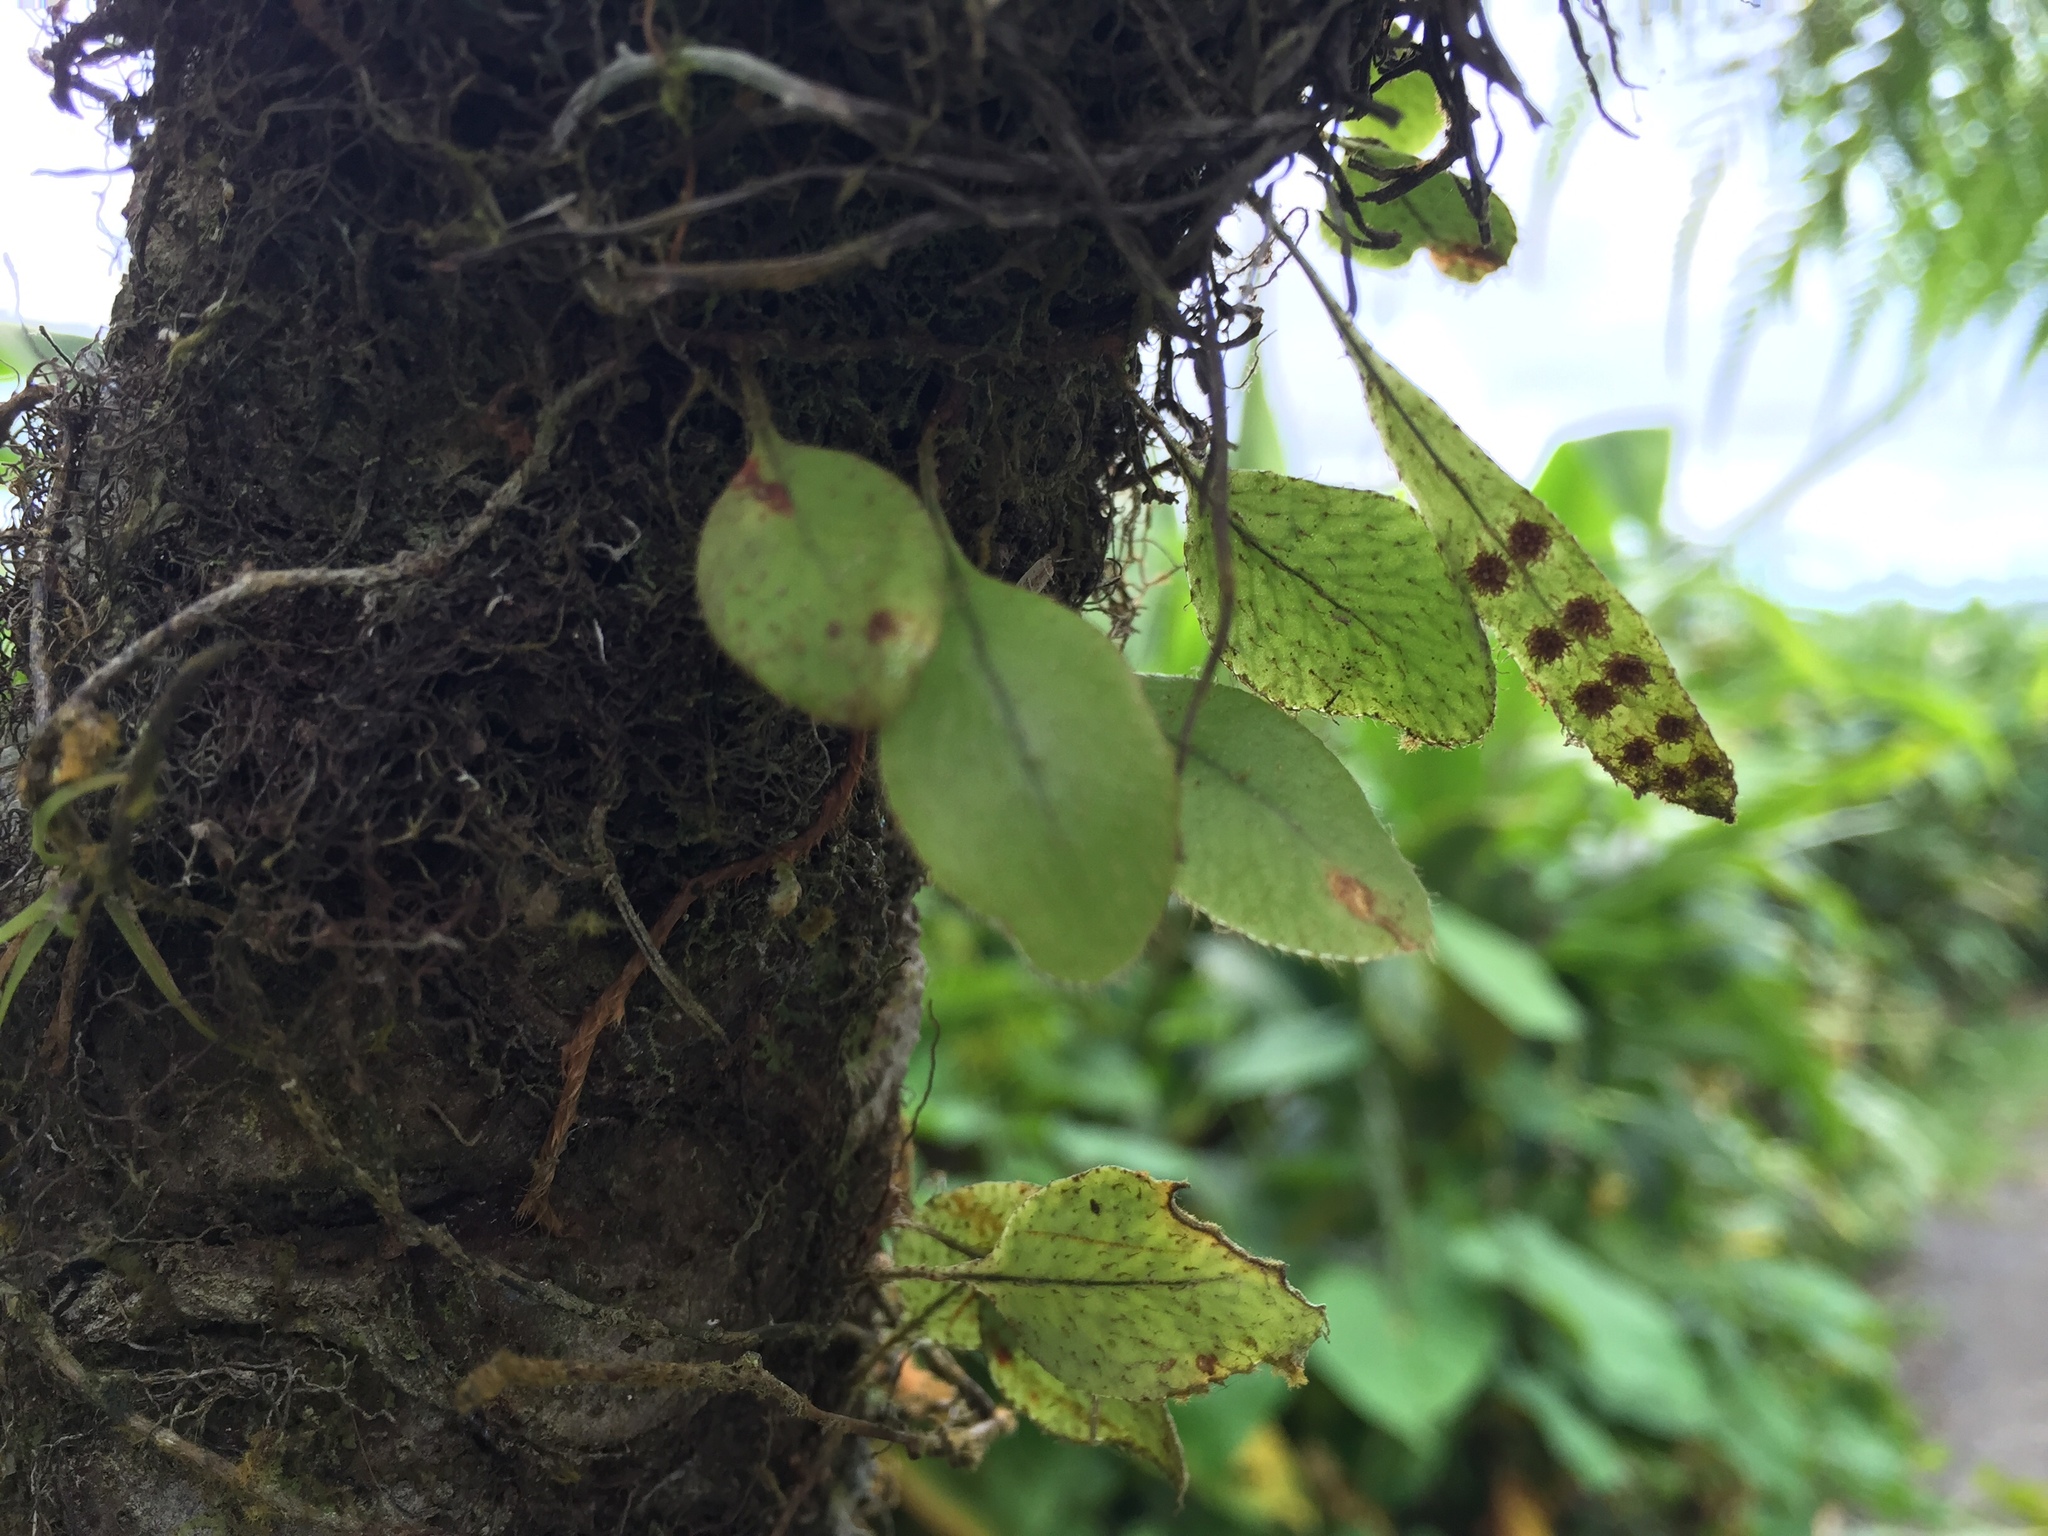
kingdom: Plantae
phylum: Tracheophyta
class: Polypodiopsida
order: Polypodiales
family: Polypodiaceae
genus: Microgramma
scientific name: Microgramma piloselloides
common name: Hairy snakefern
